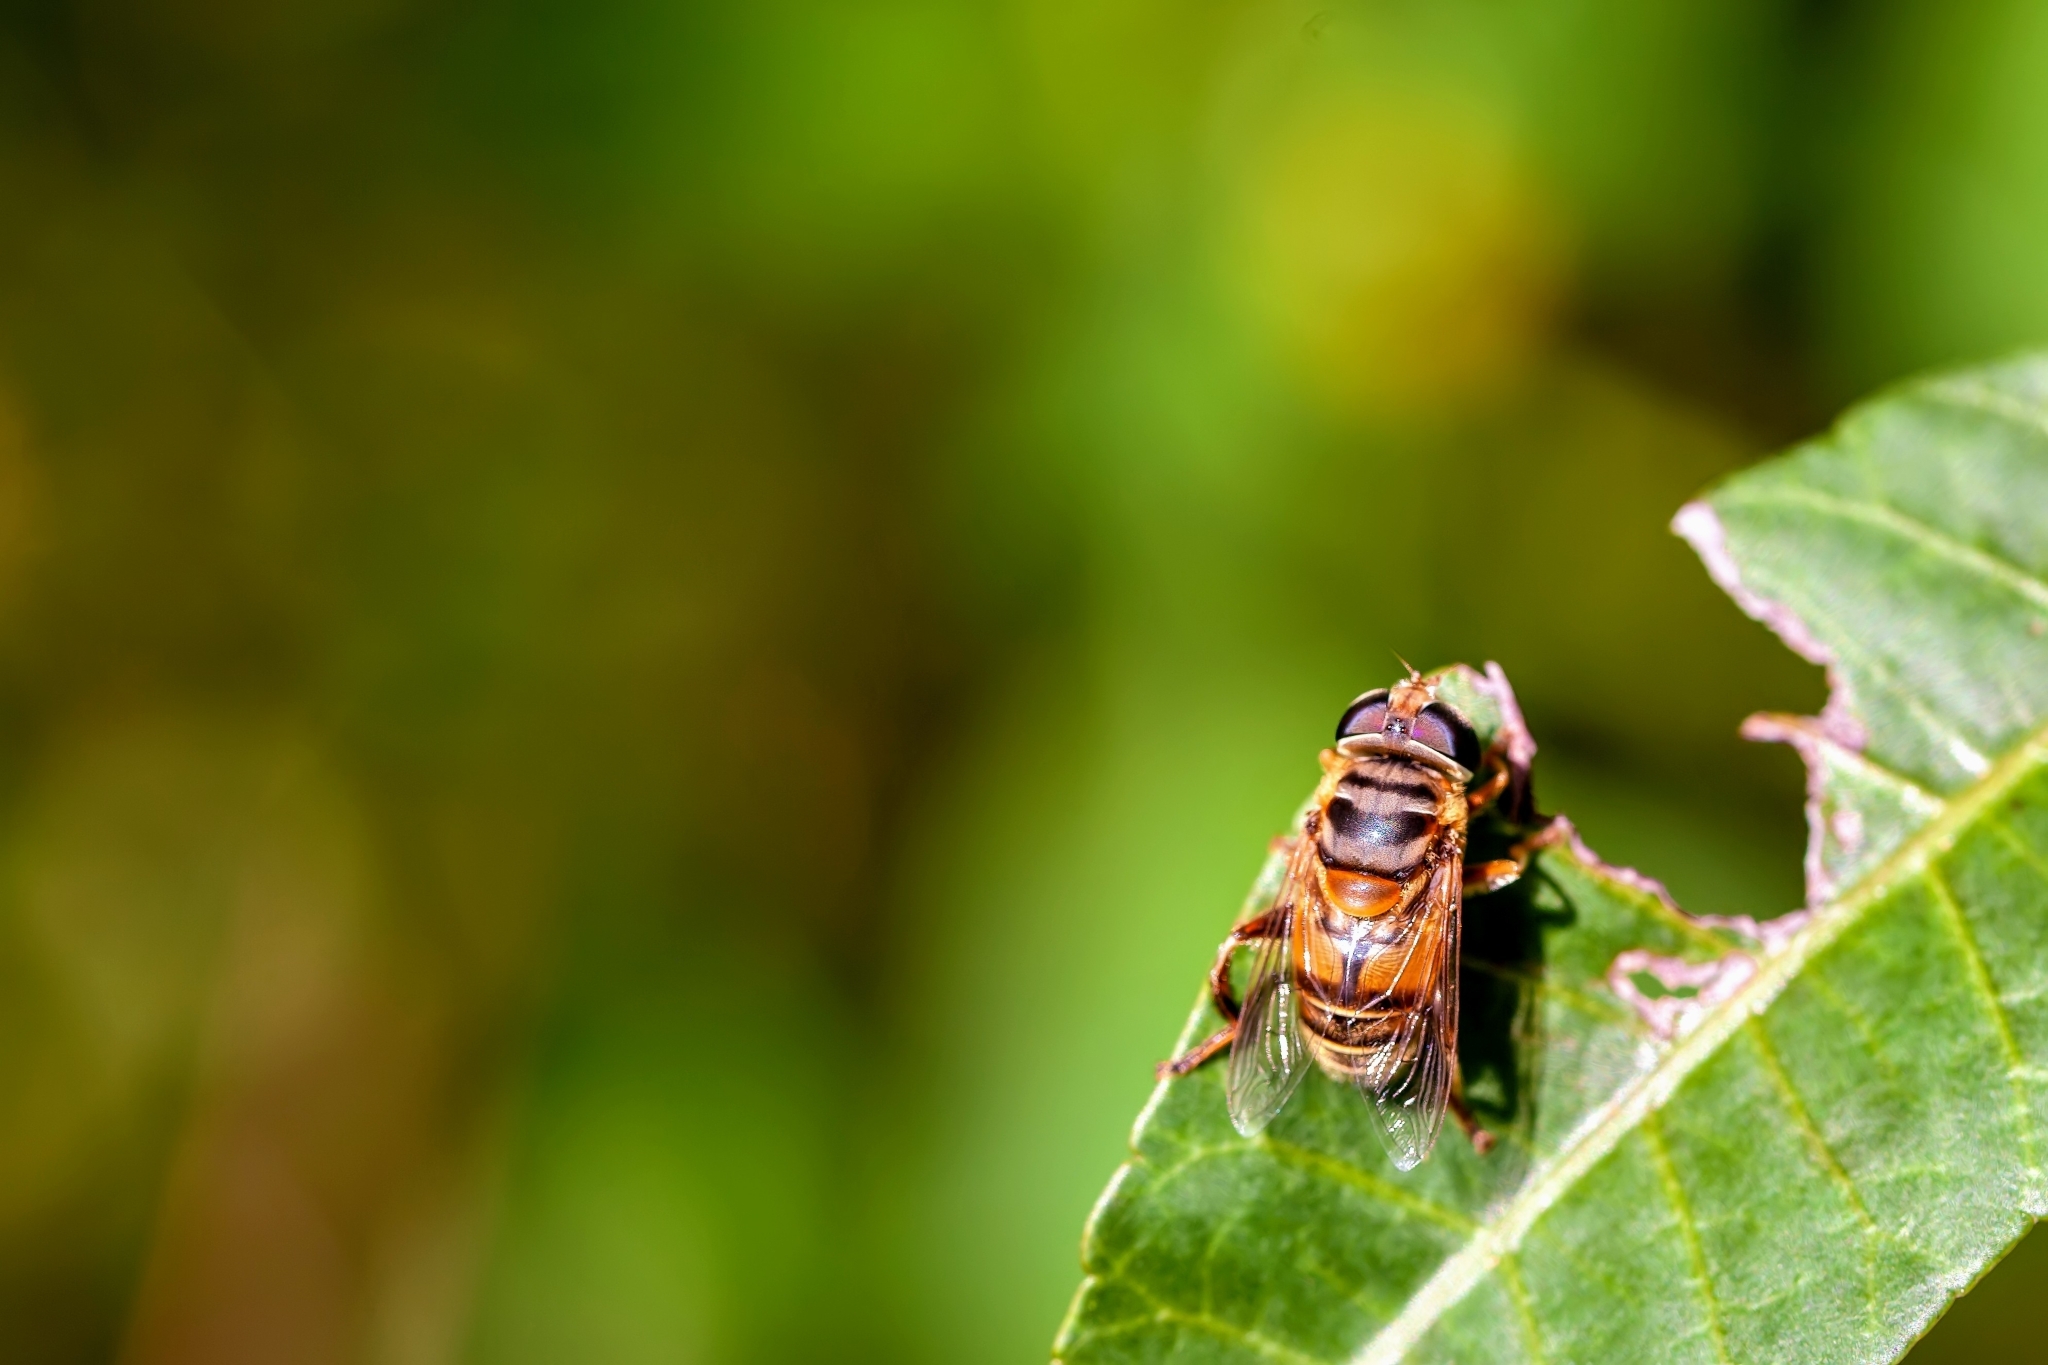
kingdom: Animalia
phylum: Arthropoda
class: Insecta
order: Diptera
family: Syrphidae
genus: Palpada
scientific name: Palpada vinetorum
